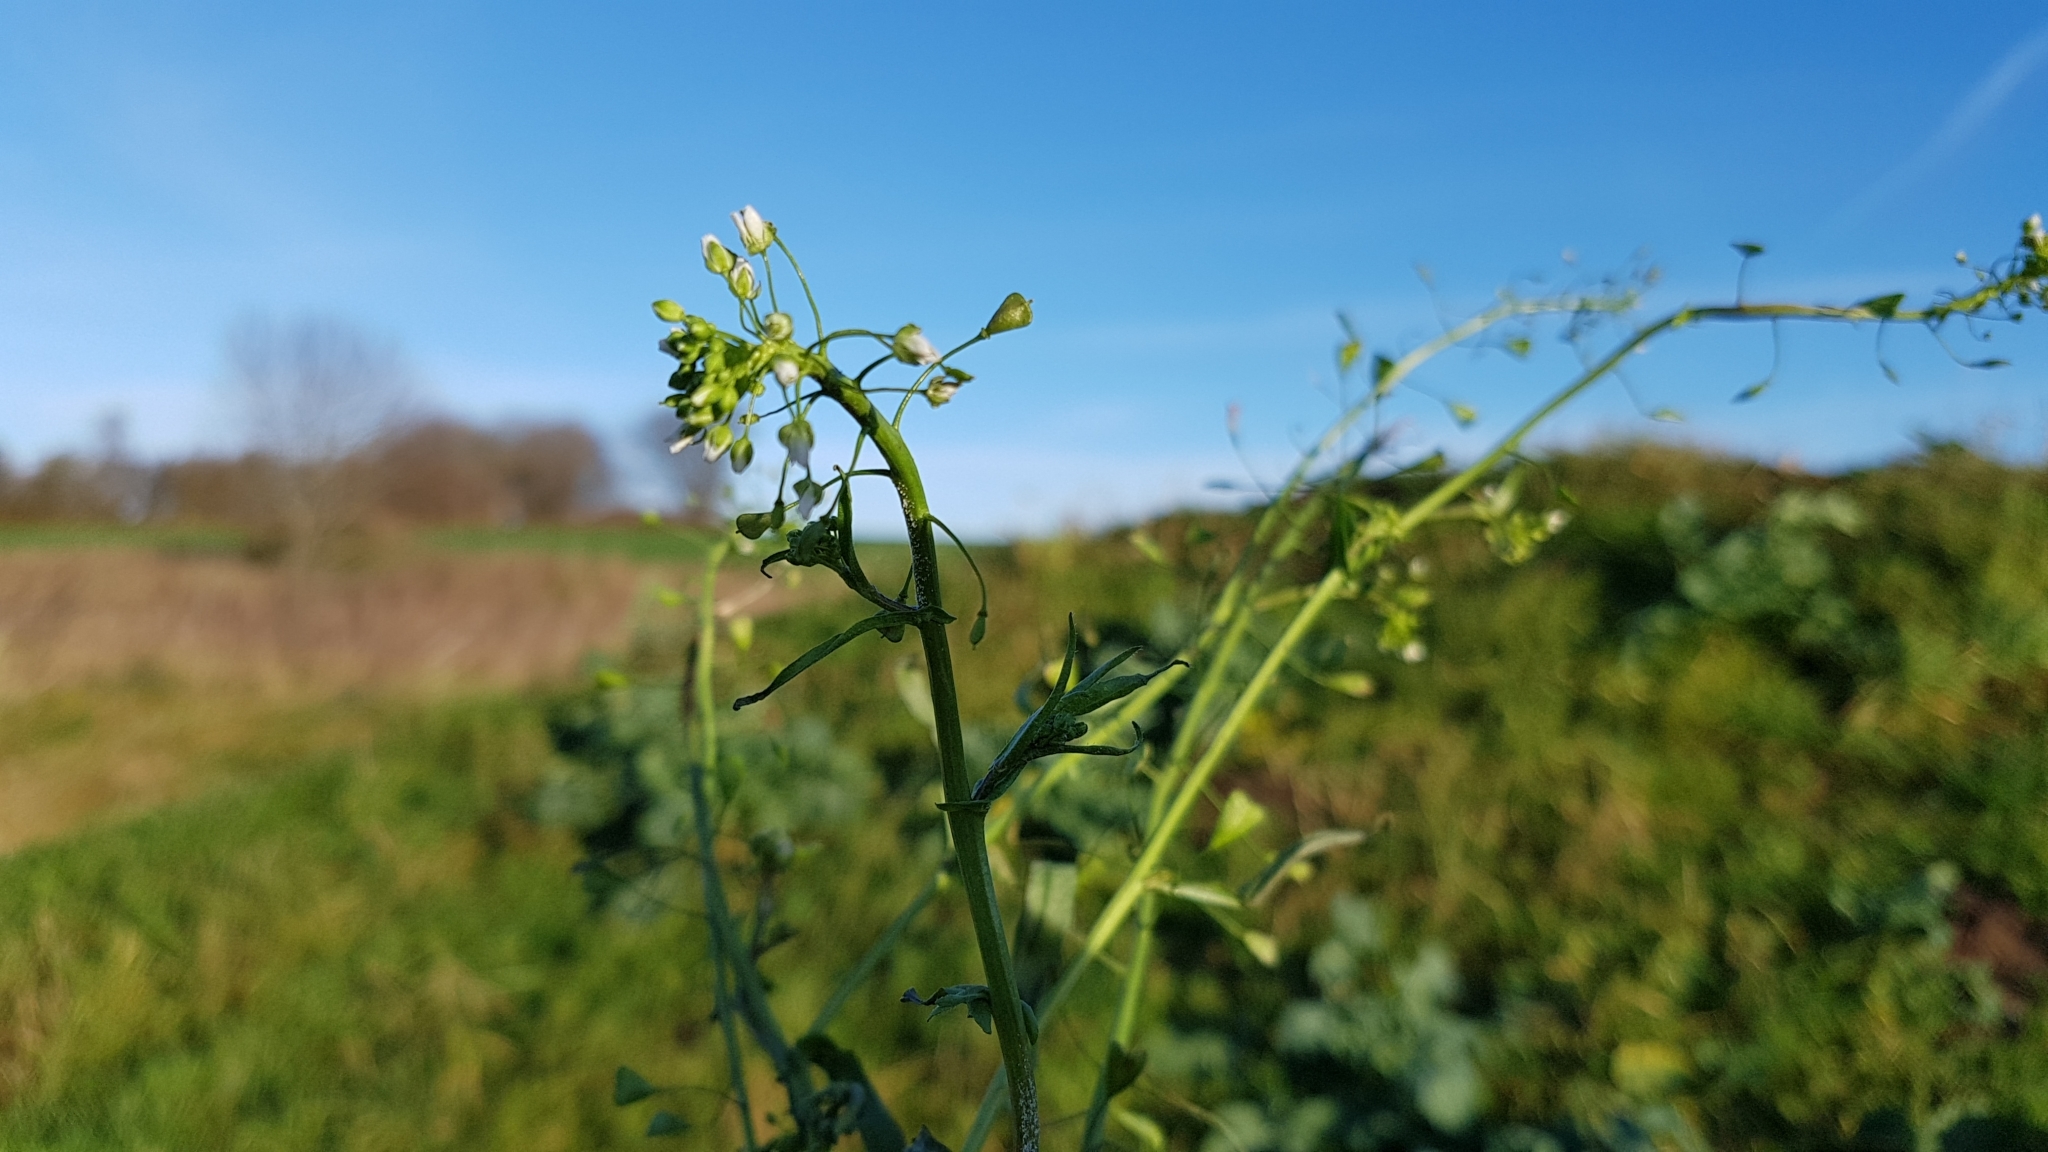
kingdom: Plantae
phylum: Tracheophyta
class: Magnoliopsida
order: Brassicales
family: Brassicaceae
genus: Capsella
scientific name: Capsella bursa-pastoris
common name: Shepherd's purse
